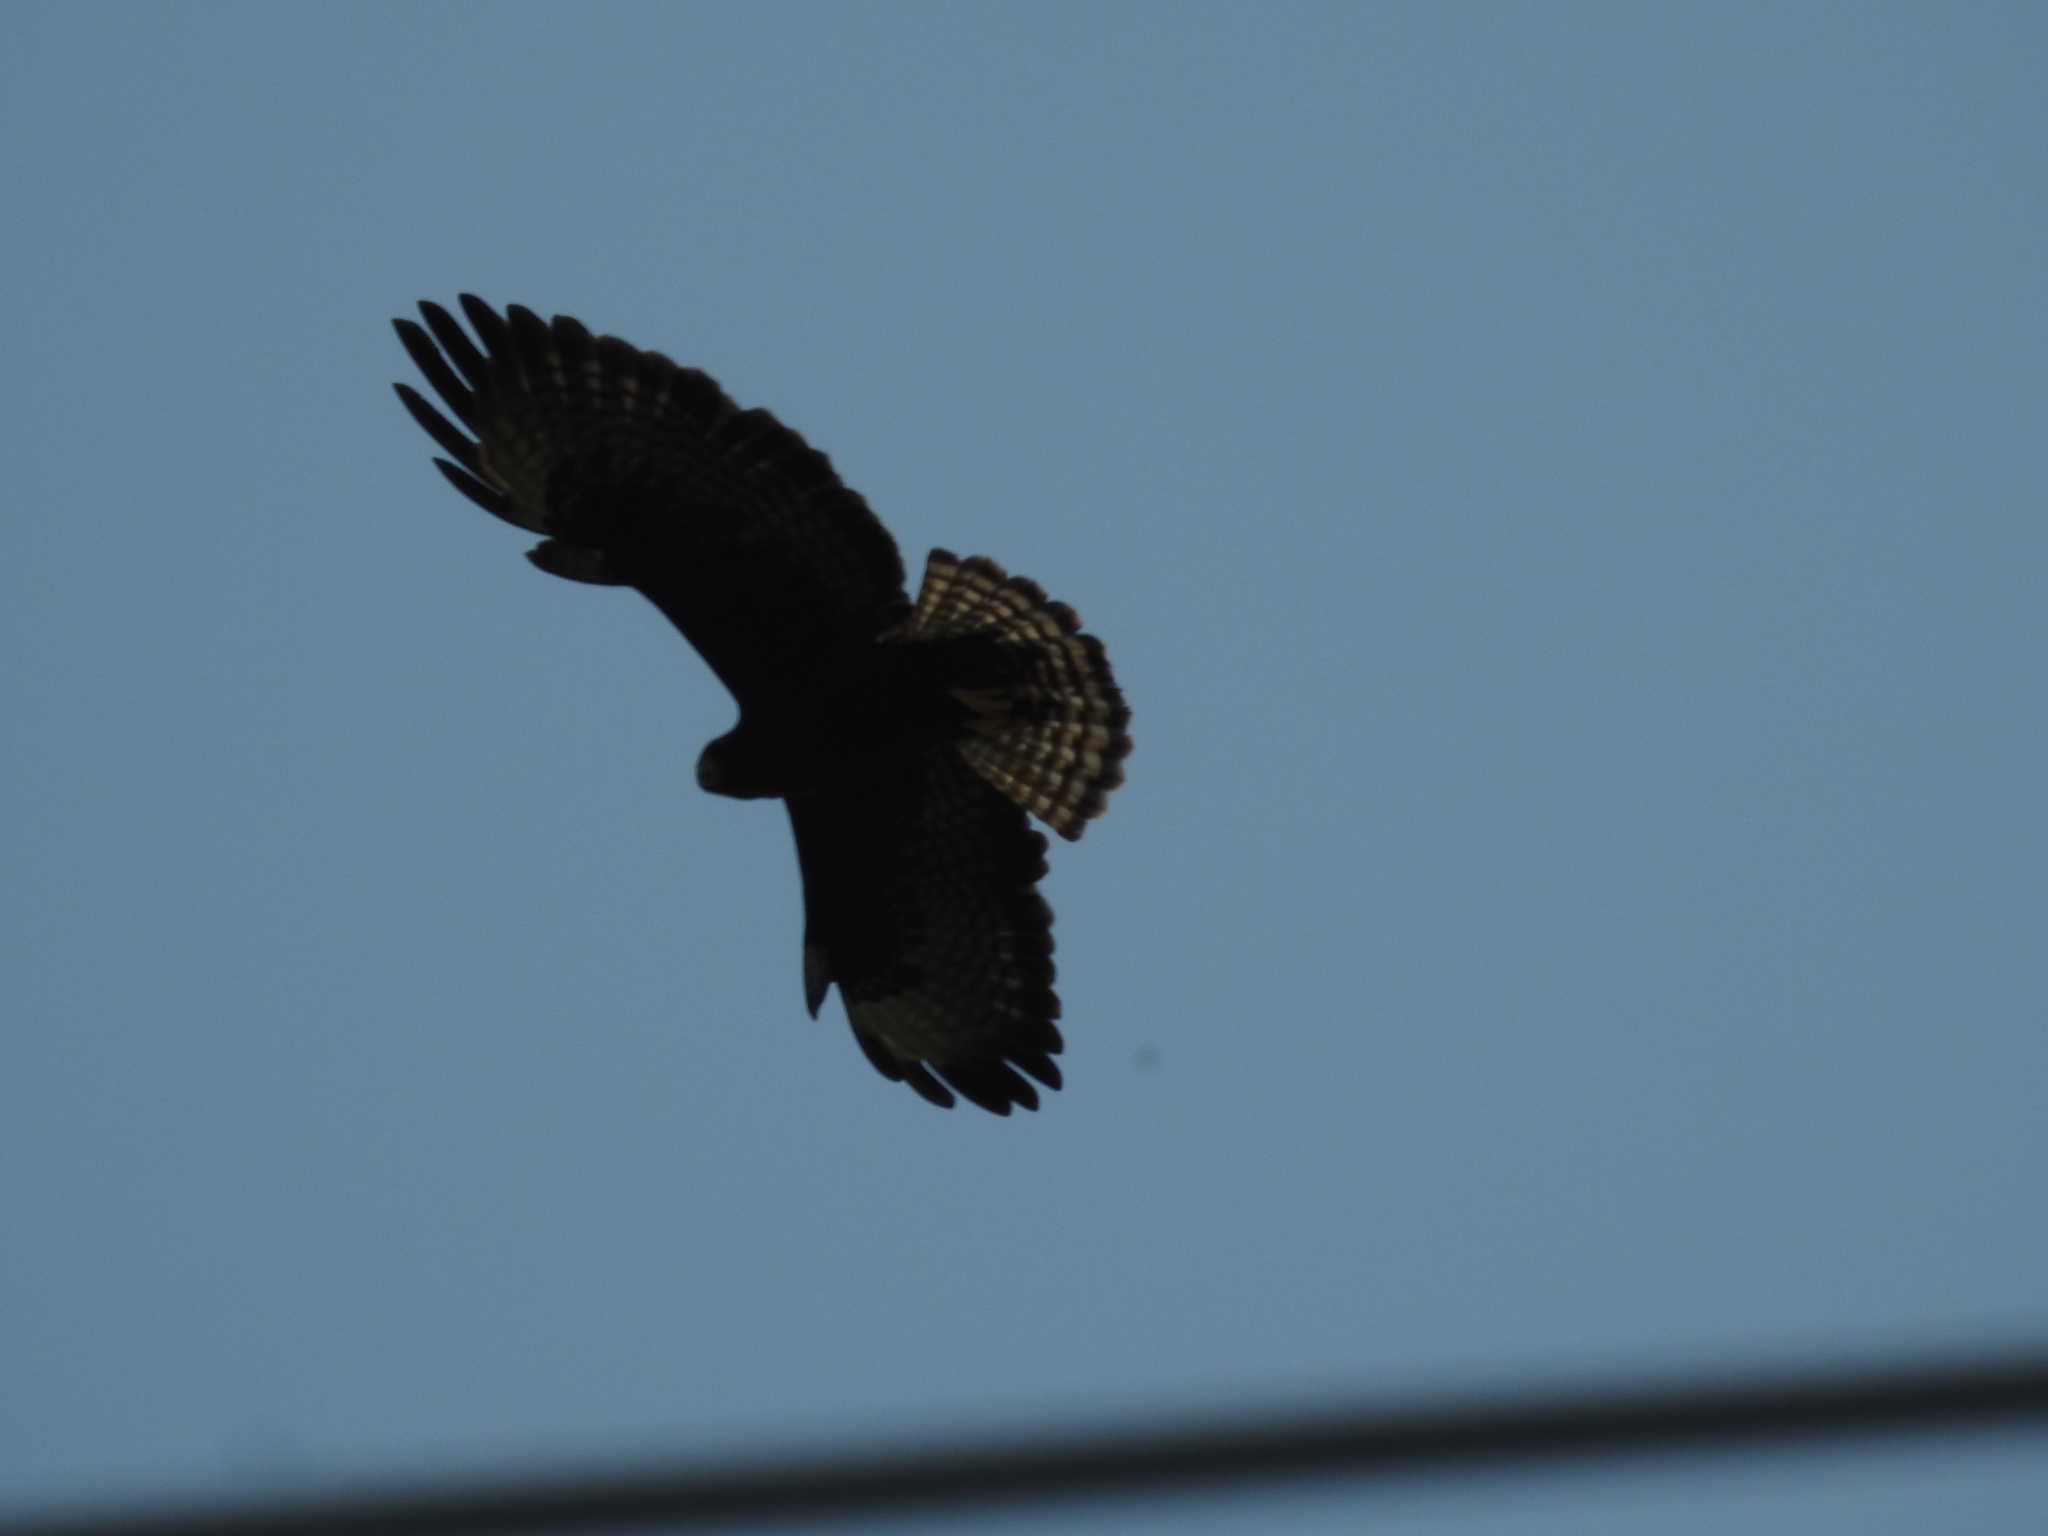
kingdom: Animalia
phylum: Chordata
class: Aves
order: Accipitriformes
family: Accipitridae
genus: Buteo
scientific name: Buteo brachyurus
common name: Short-tailed hawk
